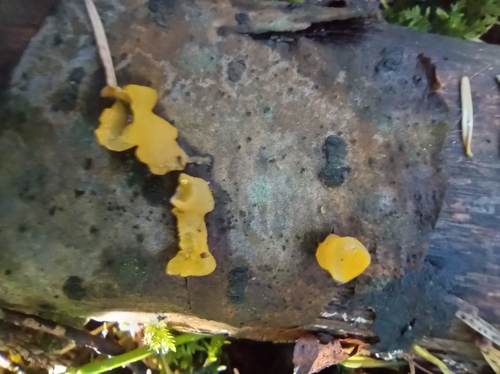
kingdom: Fungi
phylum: Basidiomycota
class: Tremellomycetes
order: Tremellales
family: Tremellaceae
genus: Tremella
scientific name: Tremella mesenterica
